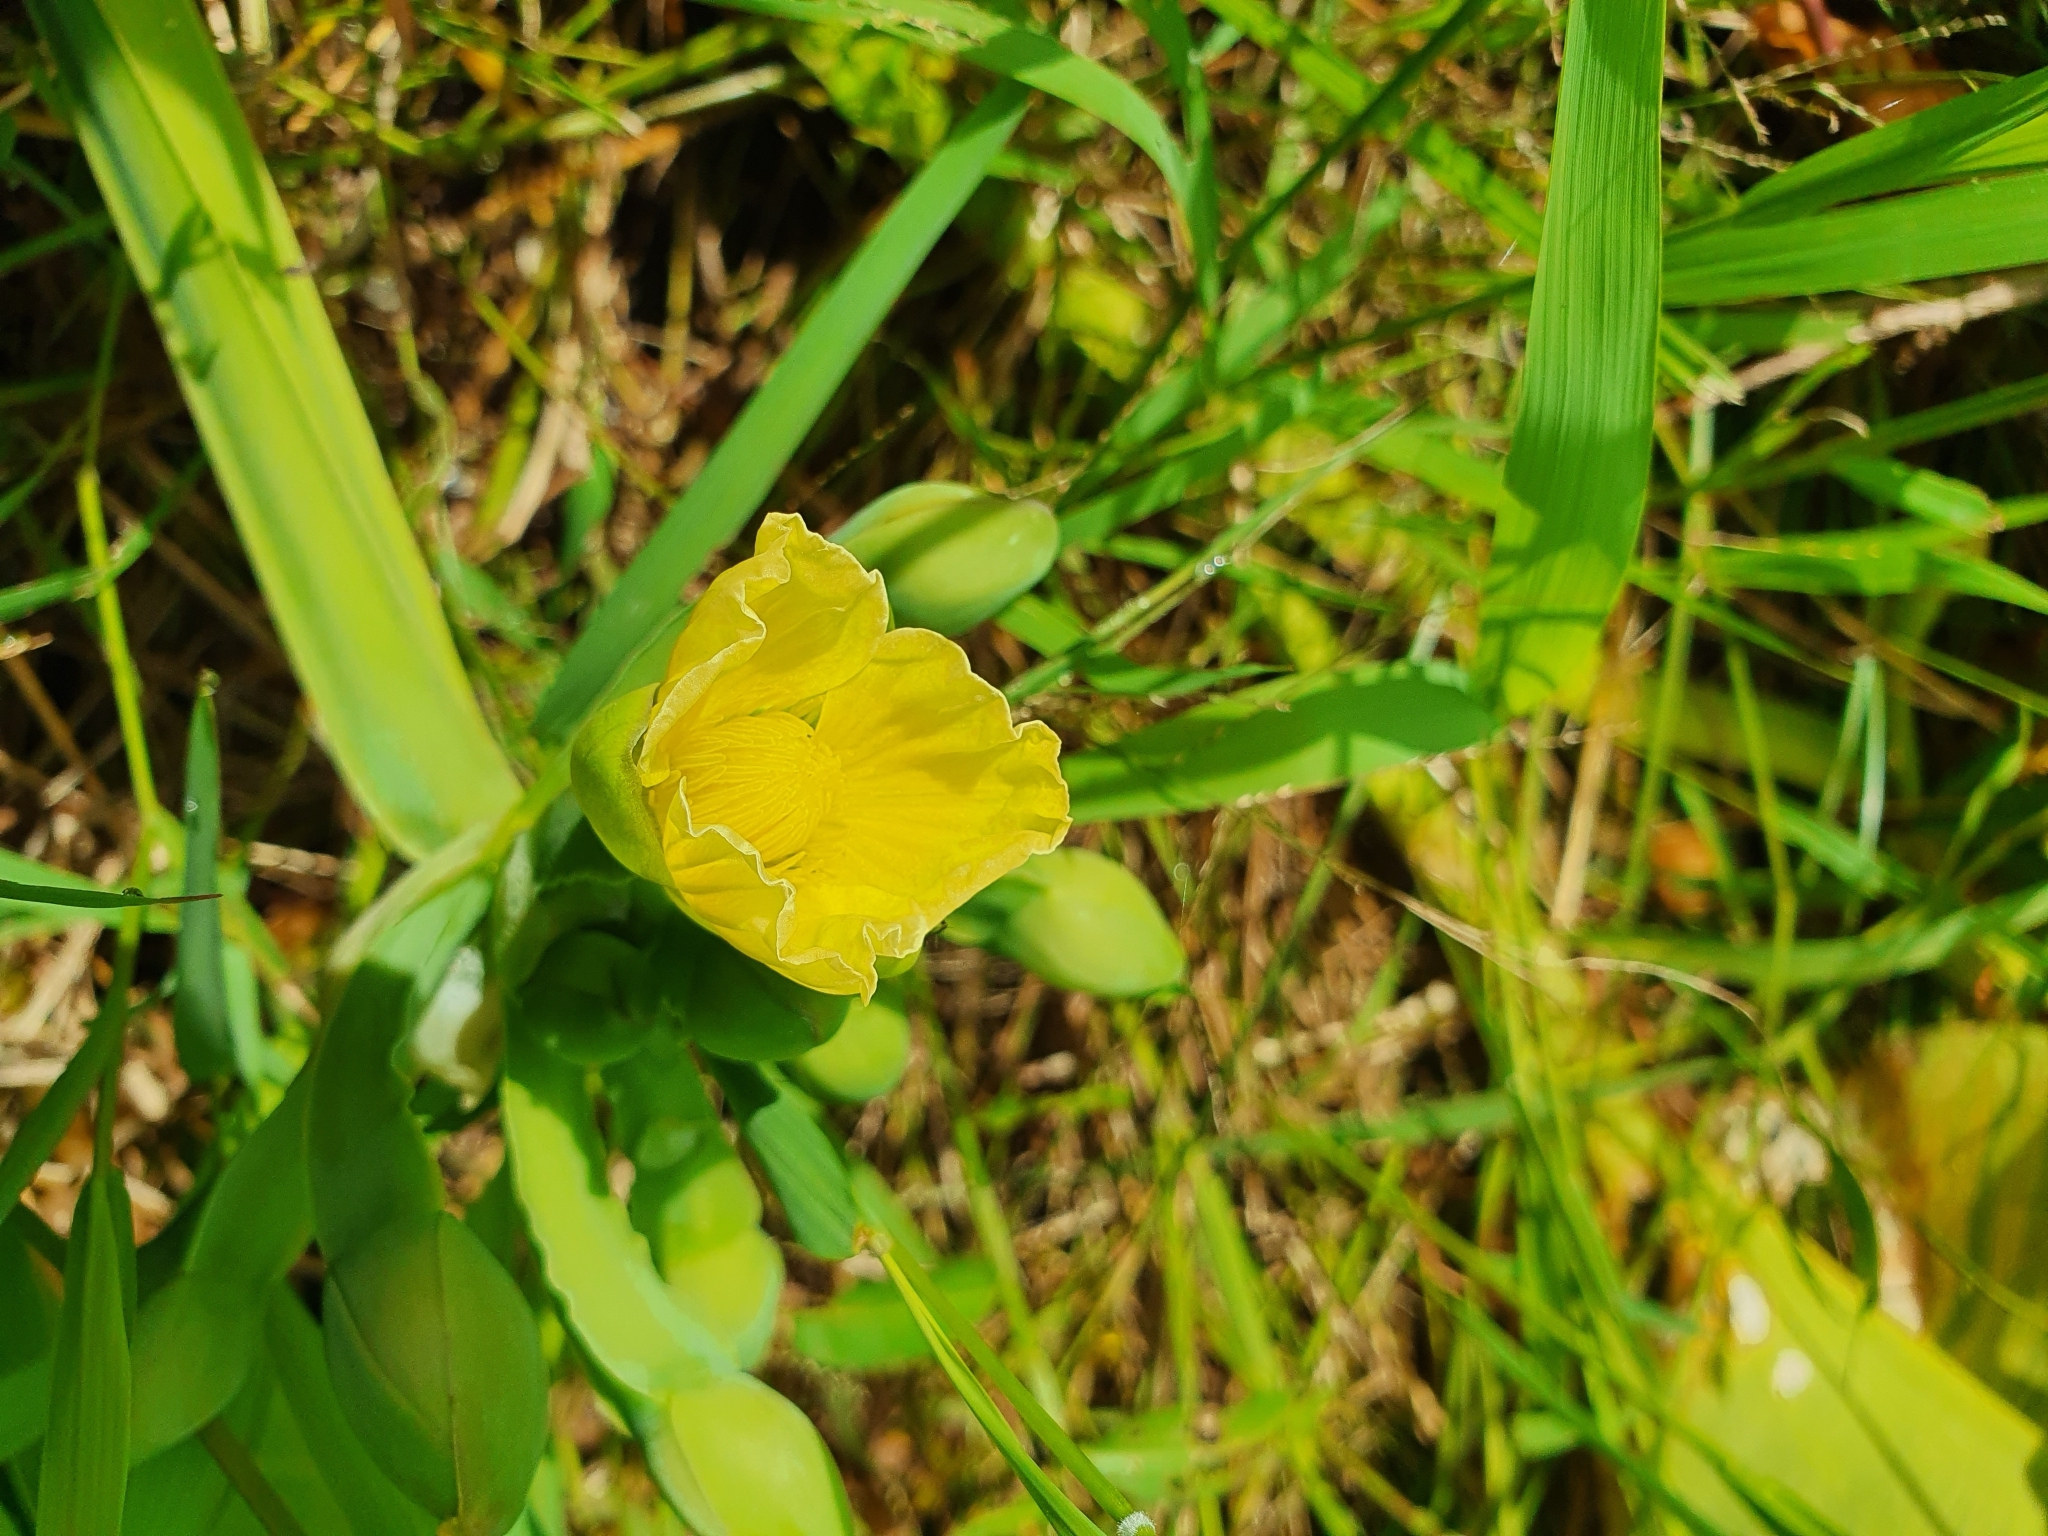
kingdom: Plantae
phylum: Tracheophyta
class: Liliopsida
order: Alismatales
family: Alismataceae
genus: Limnocharis
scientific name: Limnocharis flava
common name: Sawah-flower-rush
